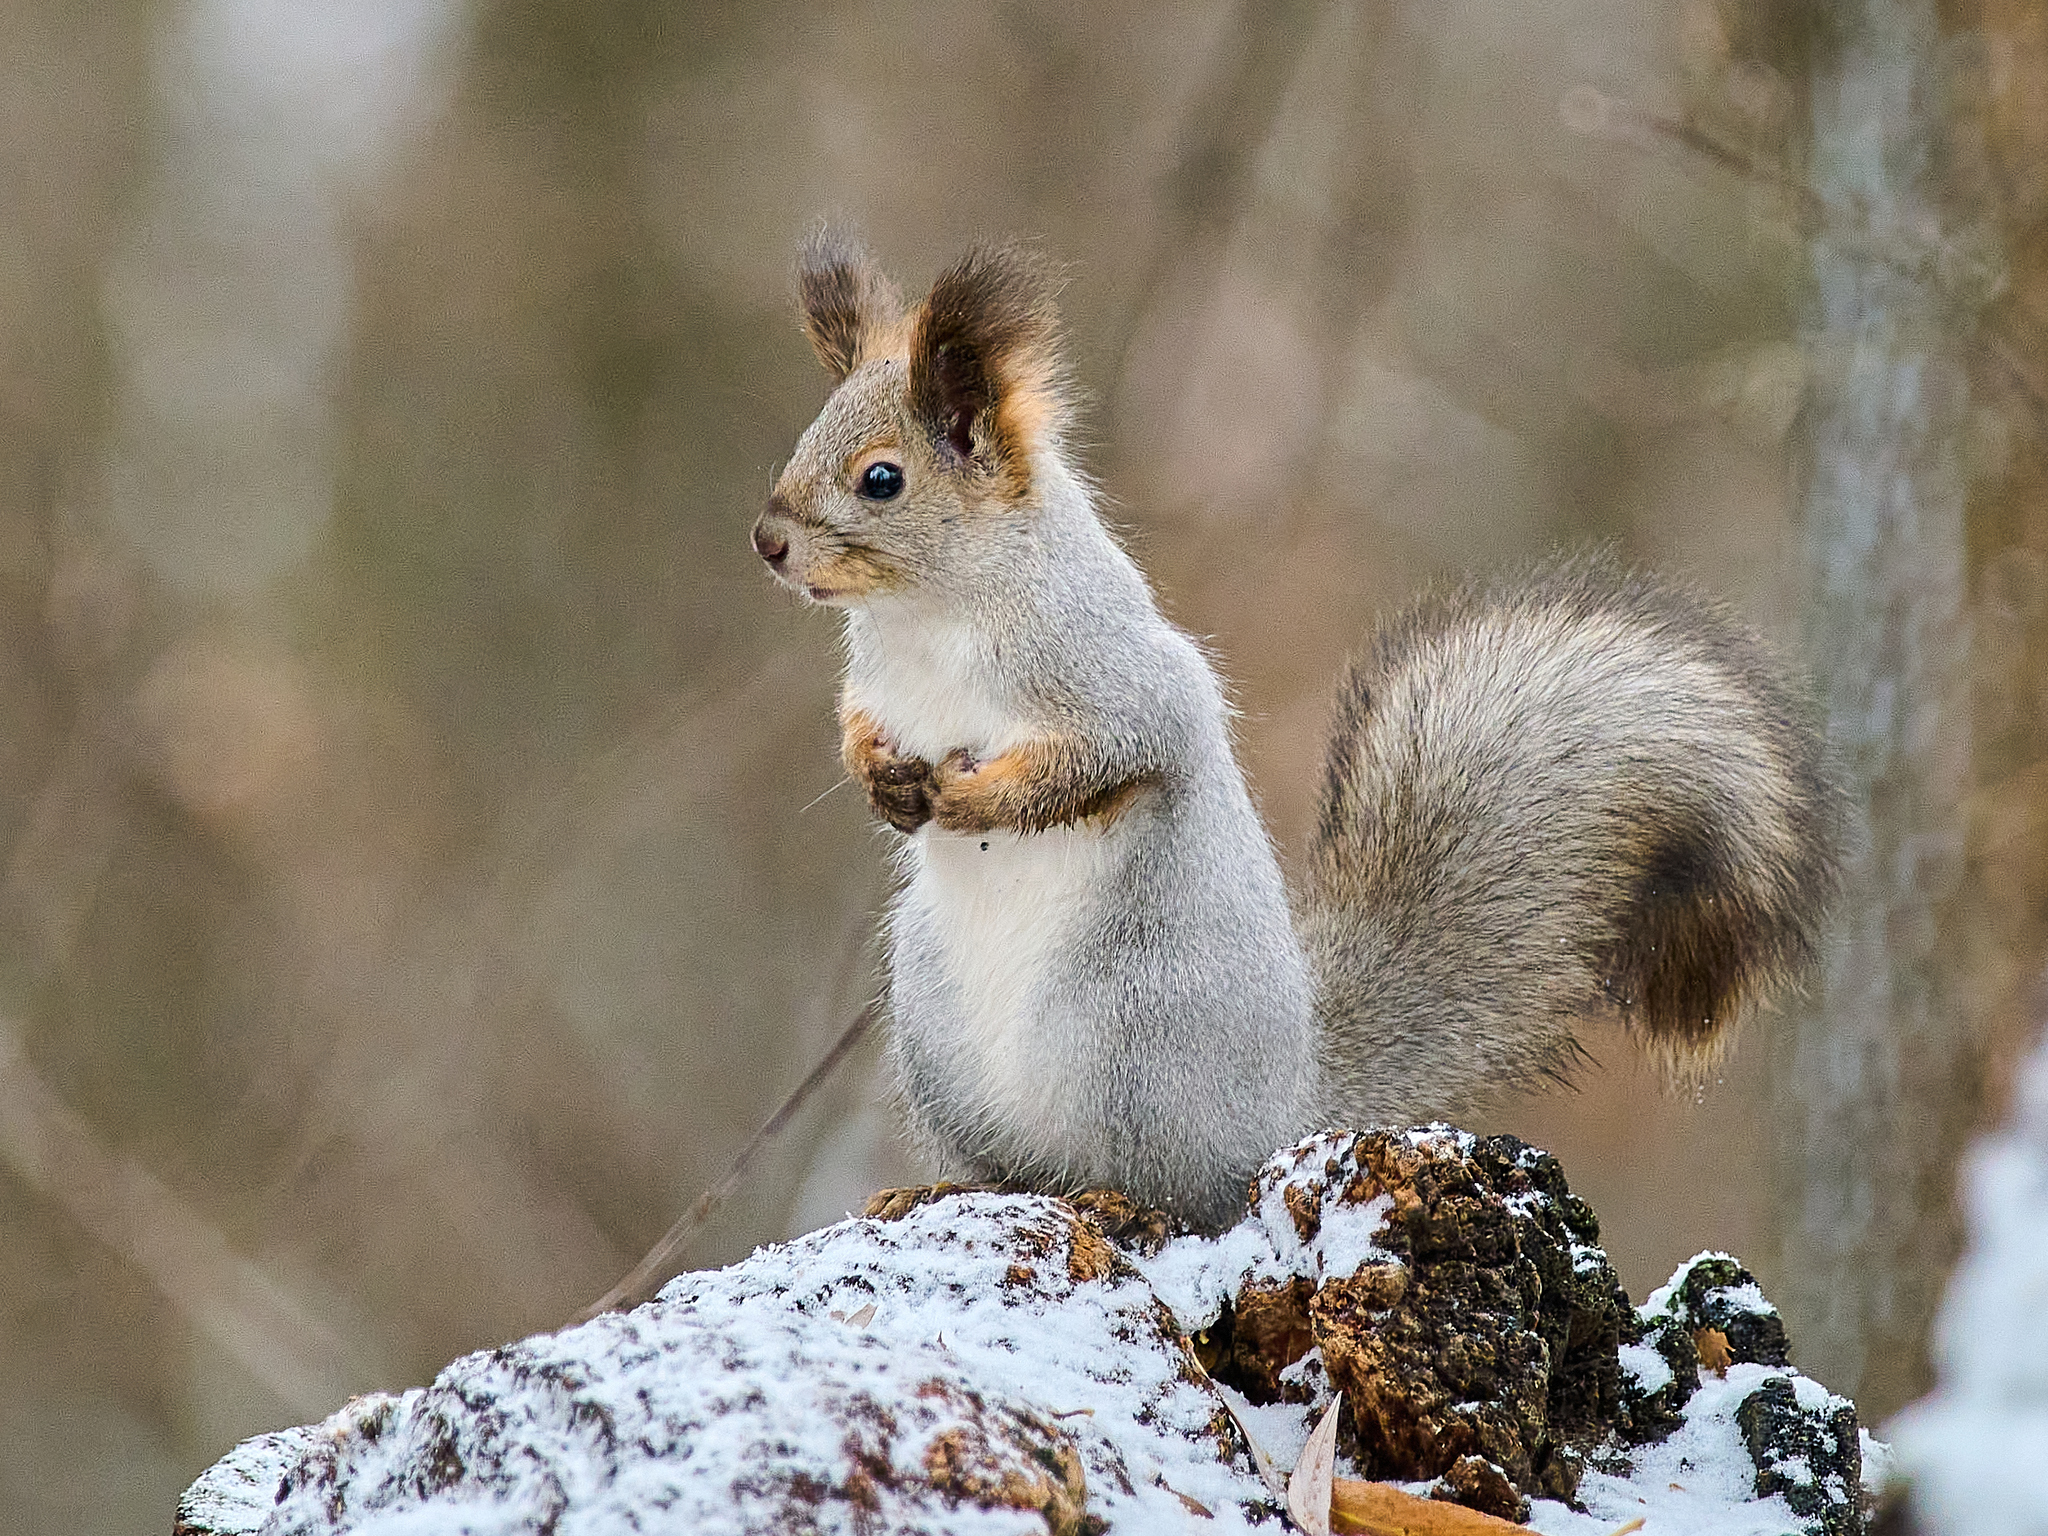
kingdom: Animalia
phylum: Chordata
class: Mammalia
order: Rodentia
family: Sciuridae
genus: Sciurus
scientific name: Sciurus vulgaris
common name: Eurasian red squirrel
